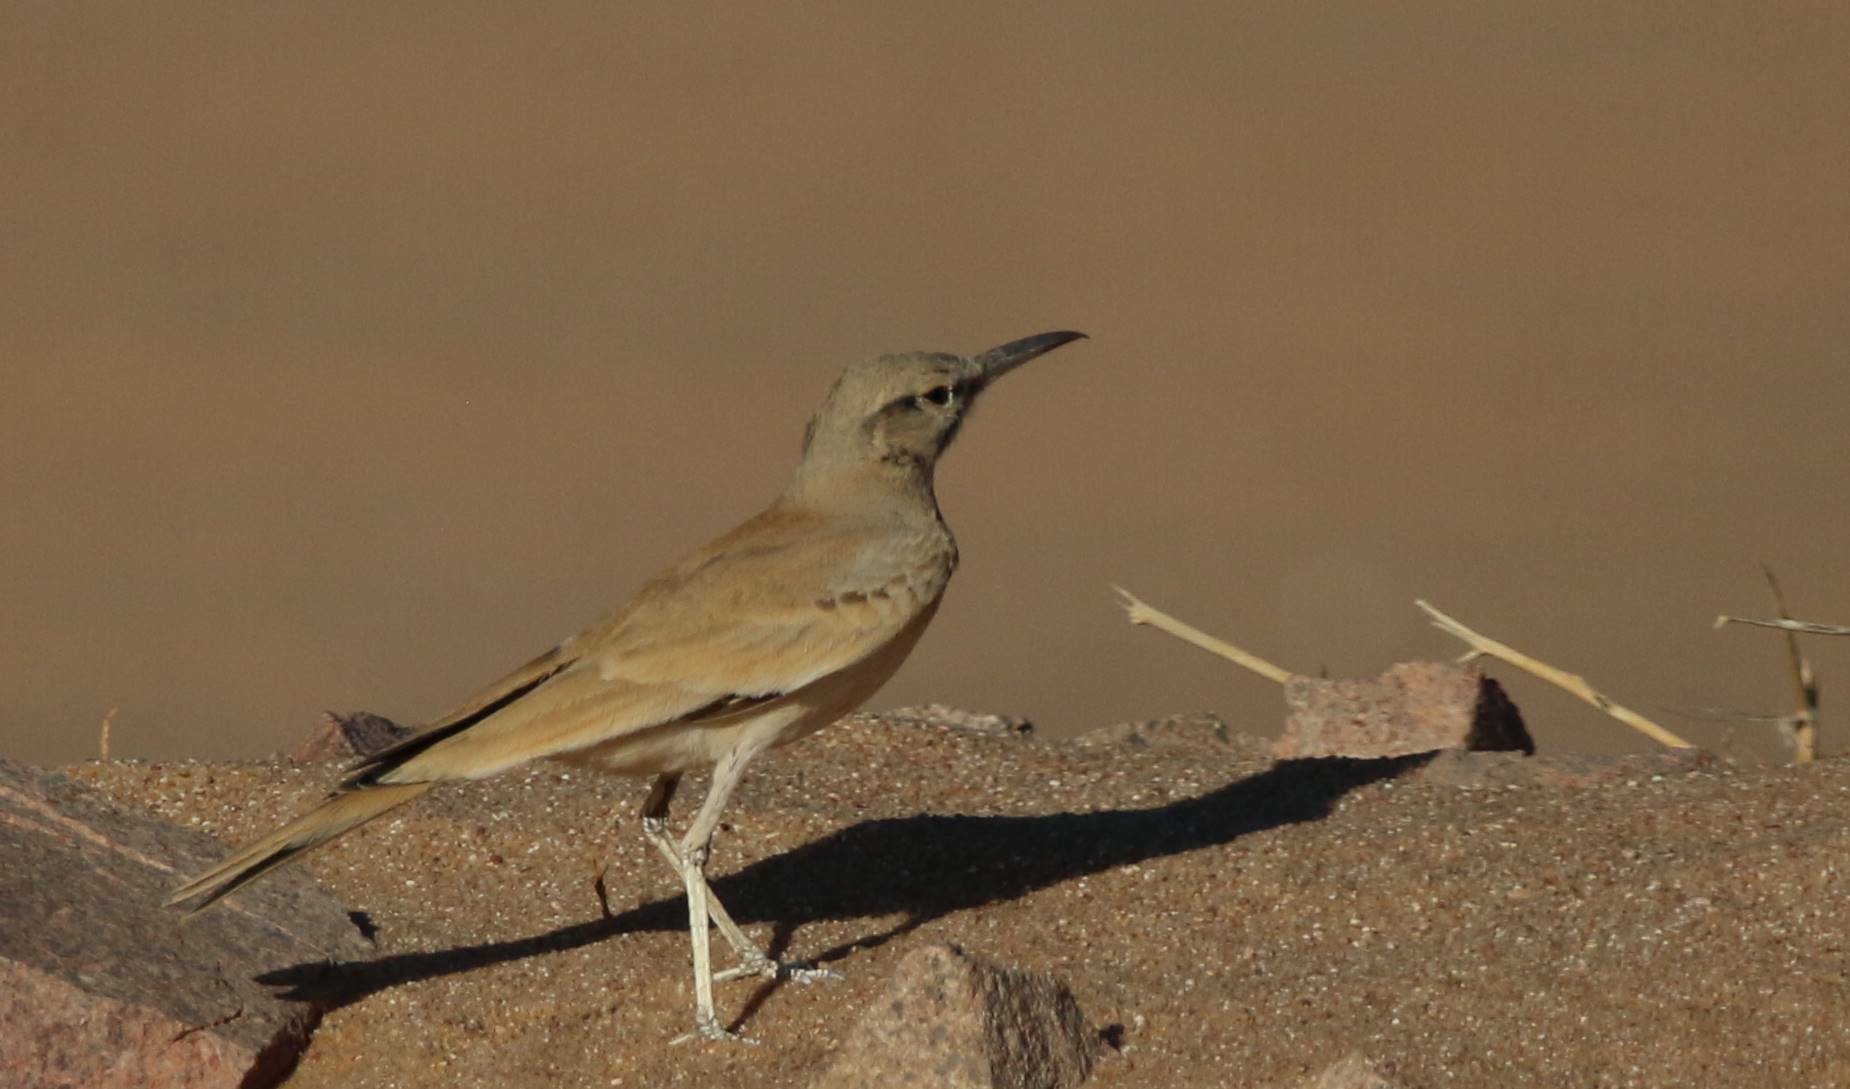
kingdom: Animalia
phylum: Chordata
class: Aves
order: Passeriformes
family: Alaudidae
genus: Alaemon
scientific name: Alaemon alaudipes
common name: Greater hoopoe-lark
